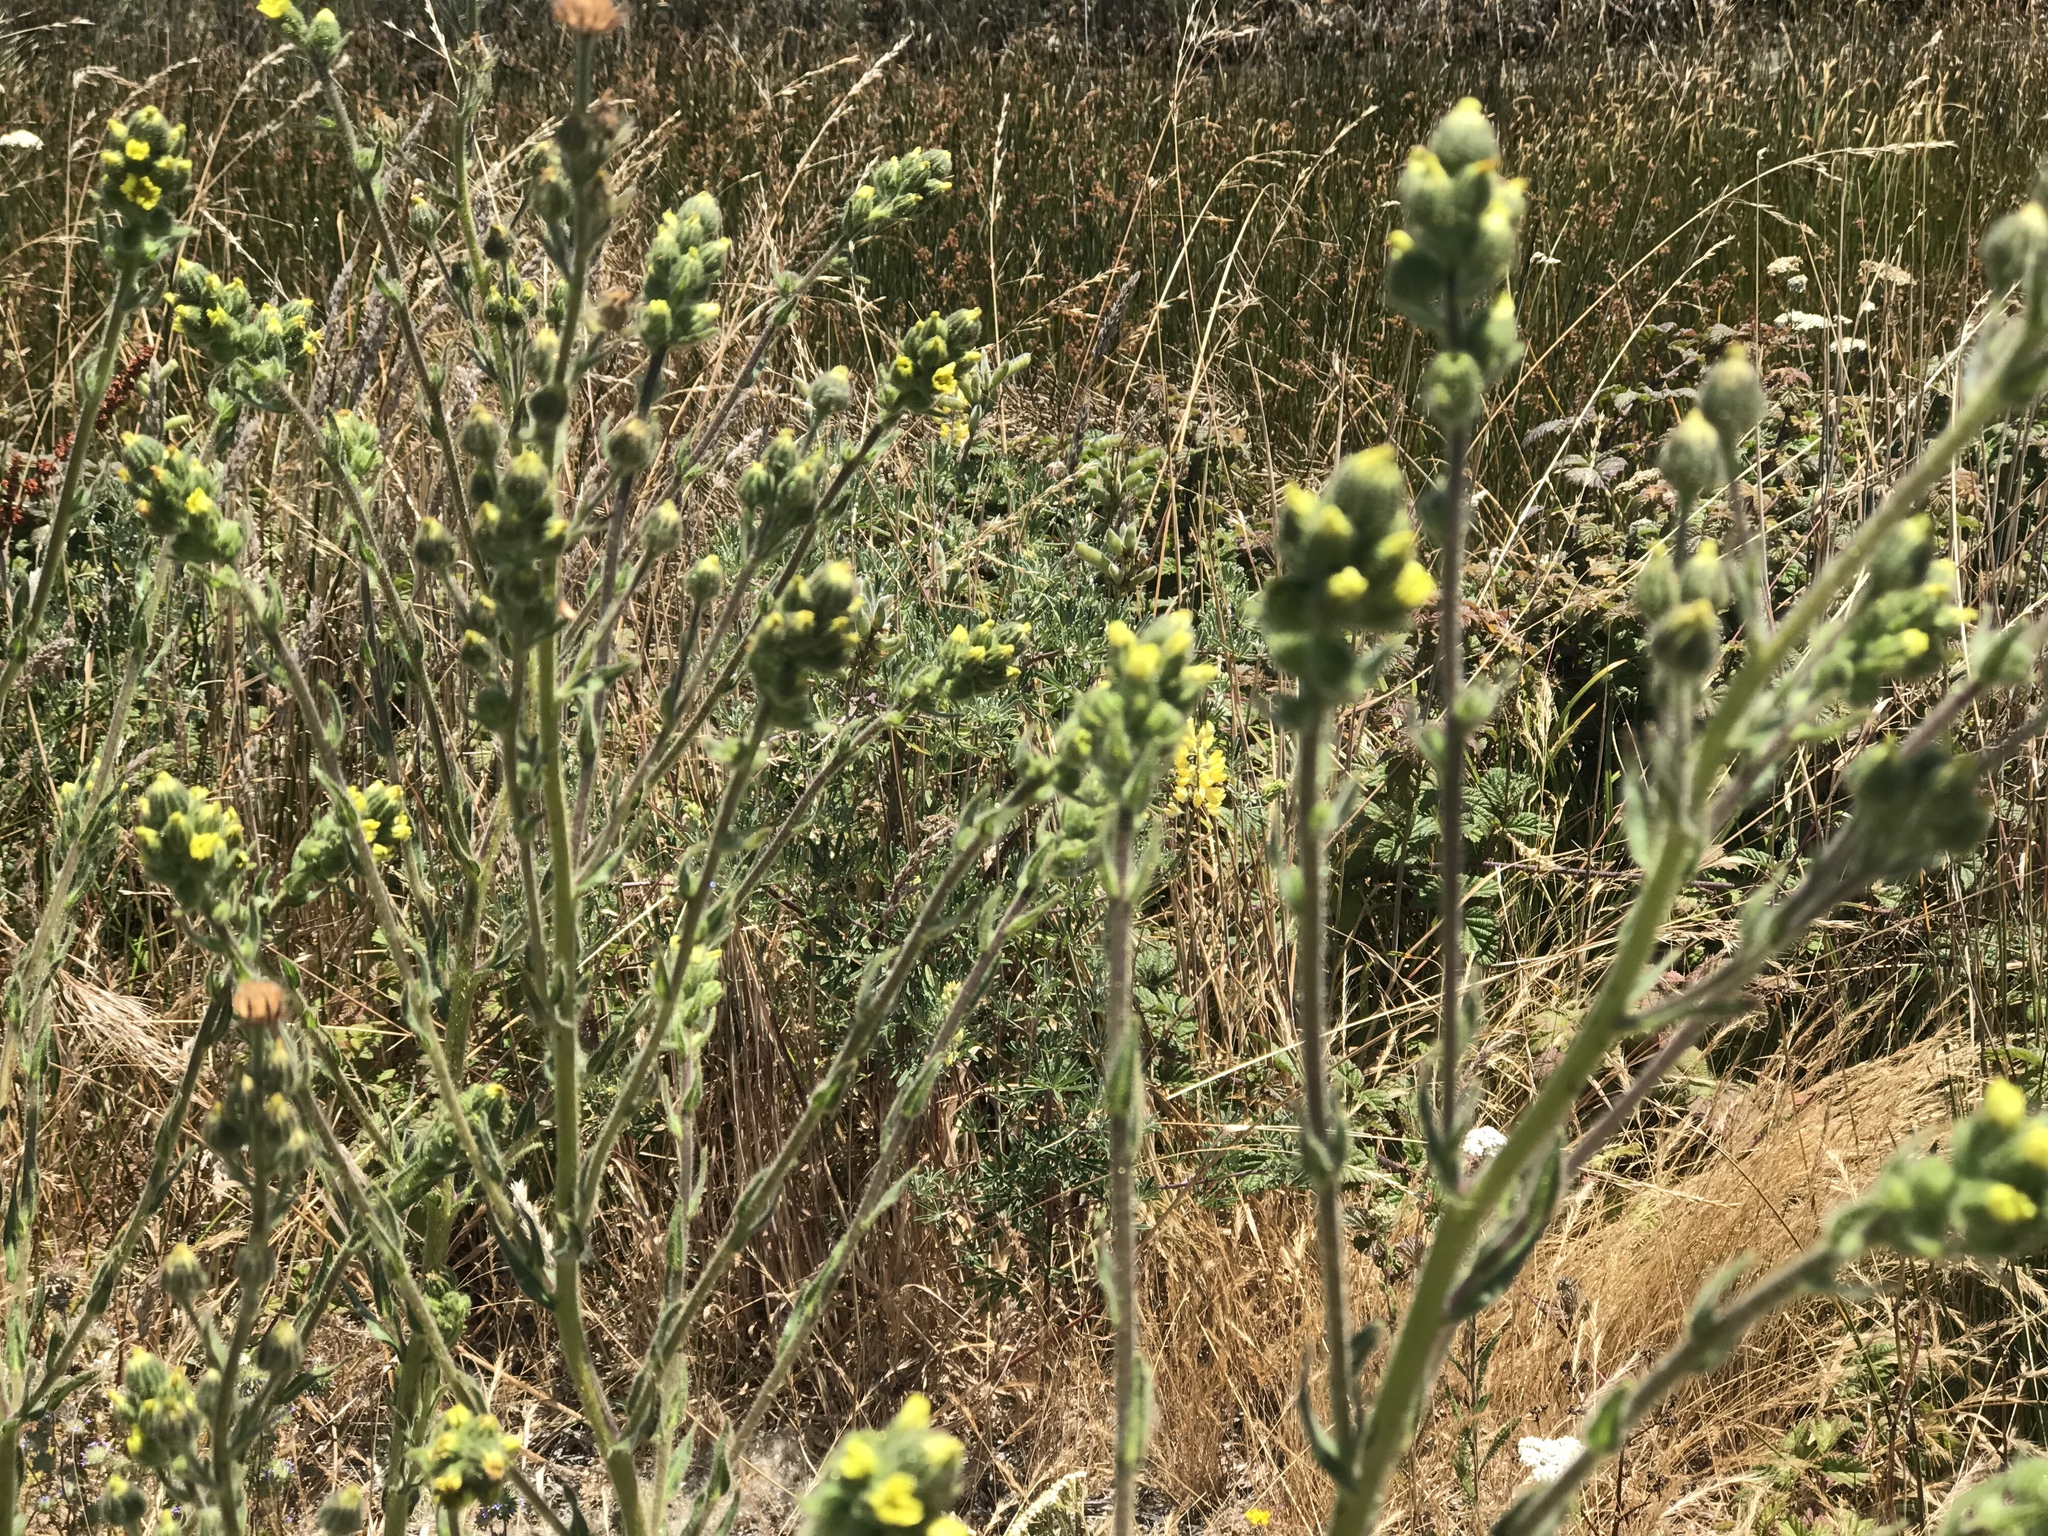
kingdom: Plantae
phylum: Tracheophyta
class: Magnoliopsida
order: Asterales
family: Asteraceae
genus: Madia
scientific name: Madia sativa
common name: Coast tarweed
